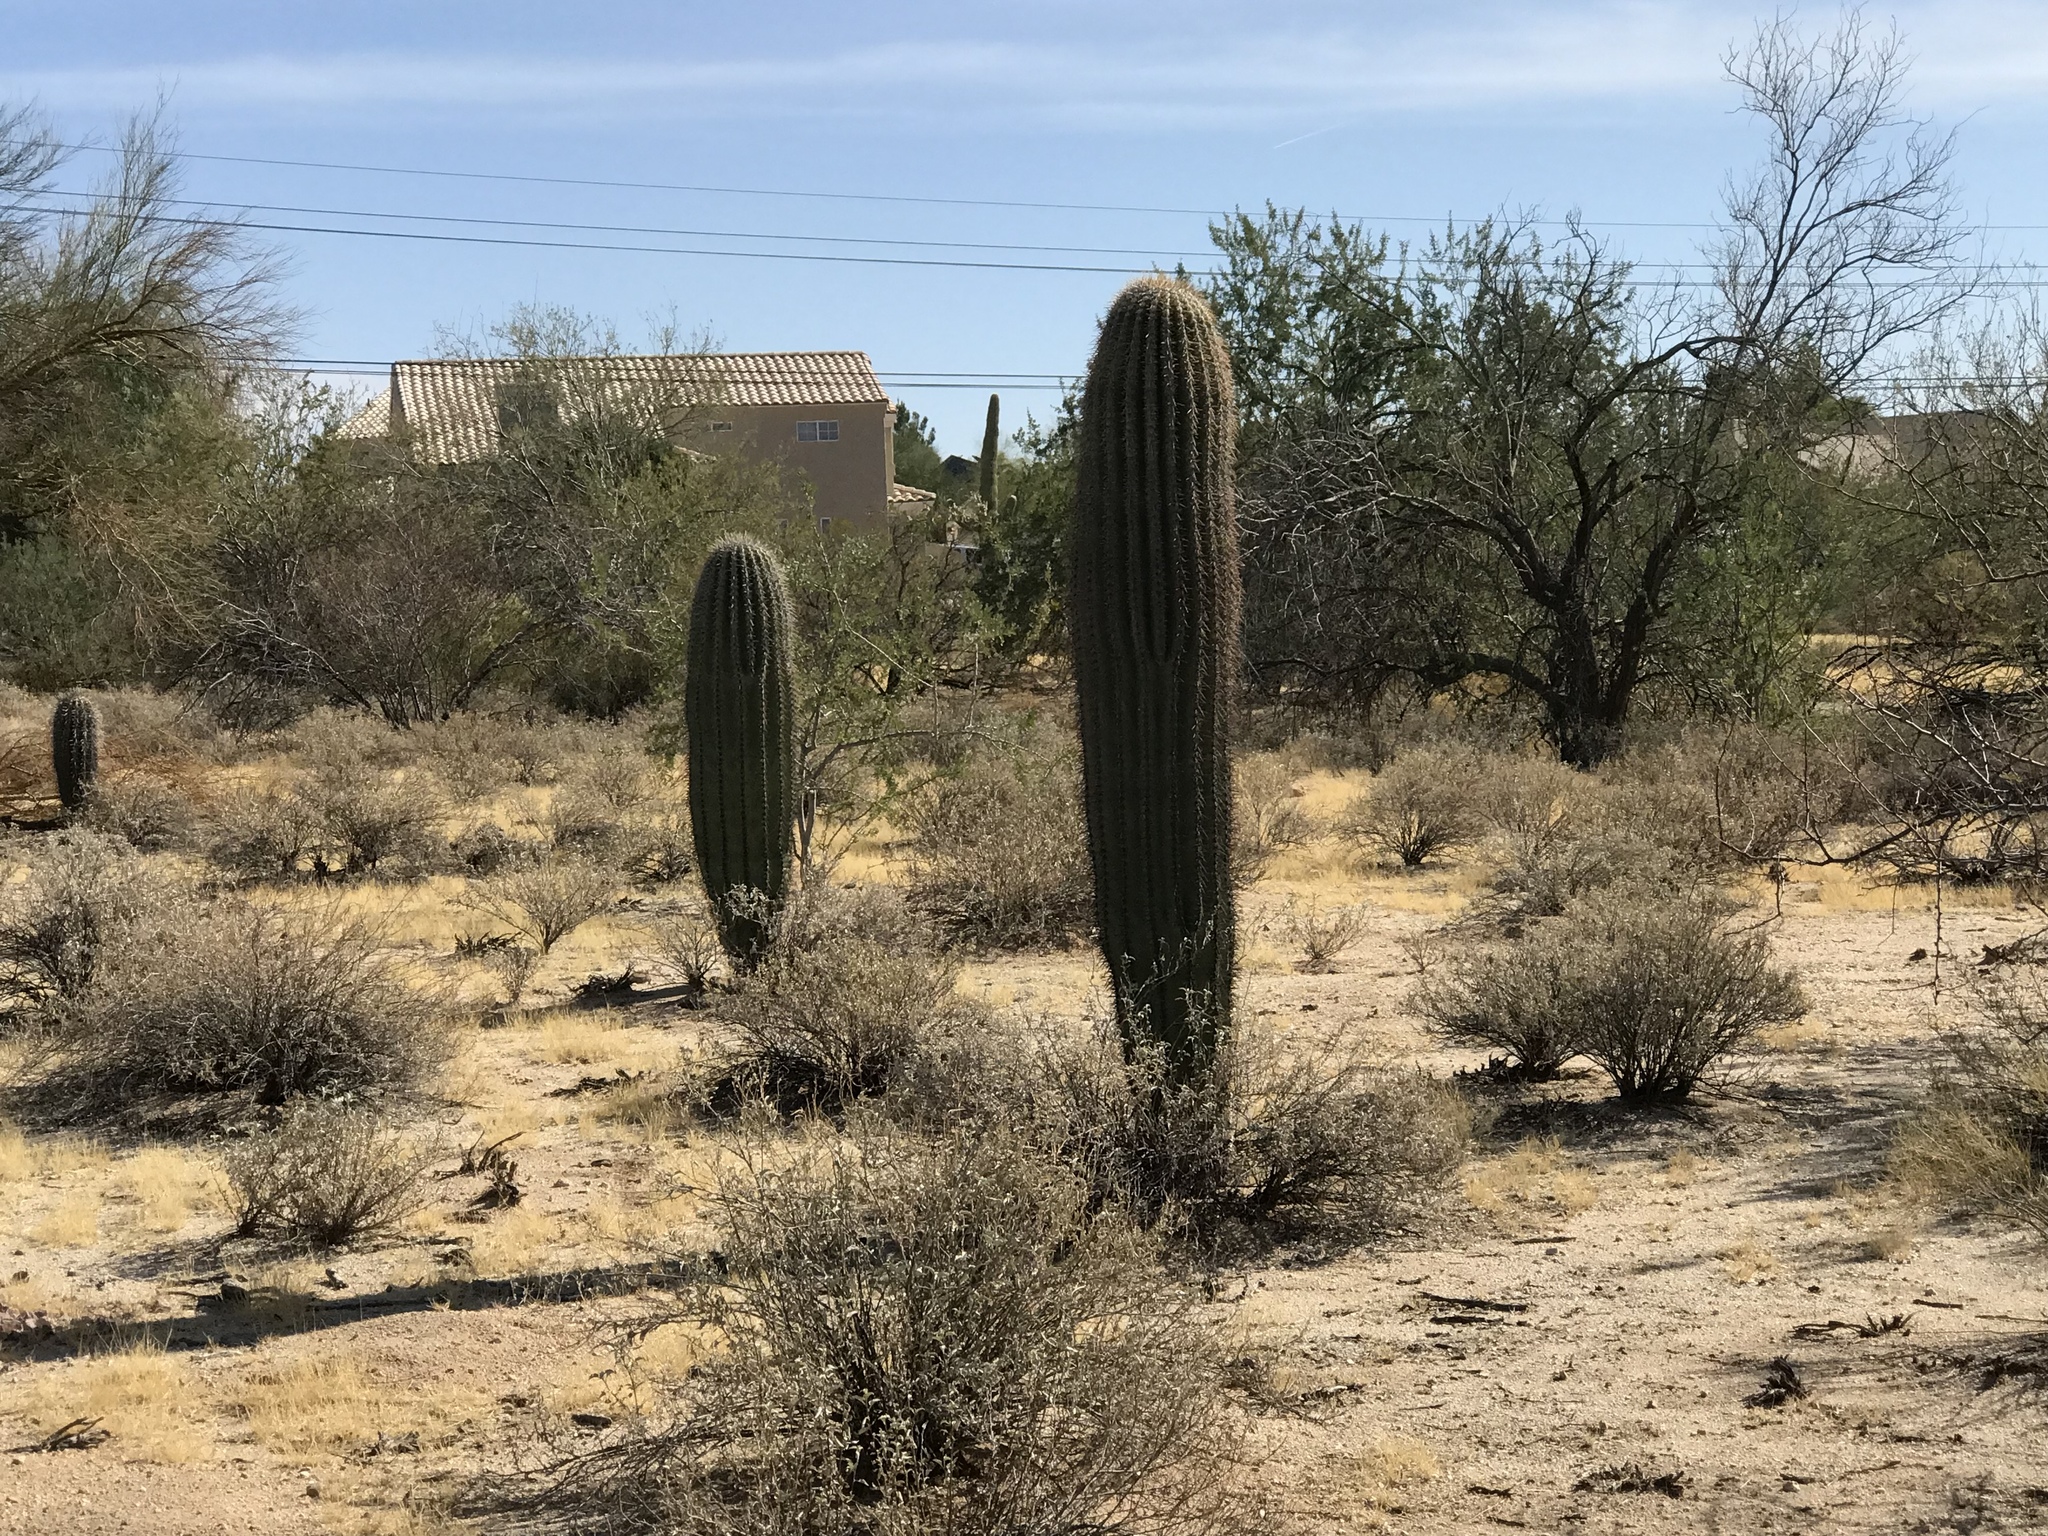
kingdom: Plantae
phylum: Tracheophyta
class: Magnoliopsida
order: Caryophyllales
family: Cactaceae
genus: Carnegiea
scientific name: Carnegiea gigantea
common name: Saguaro
